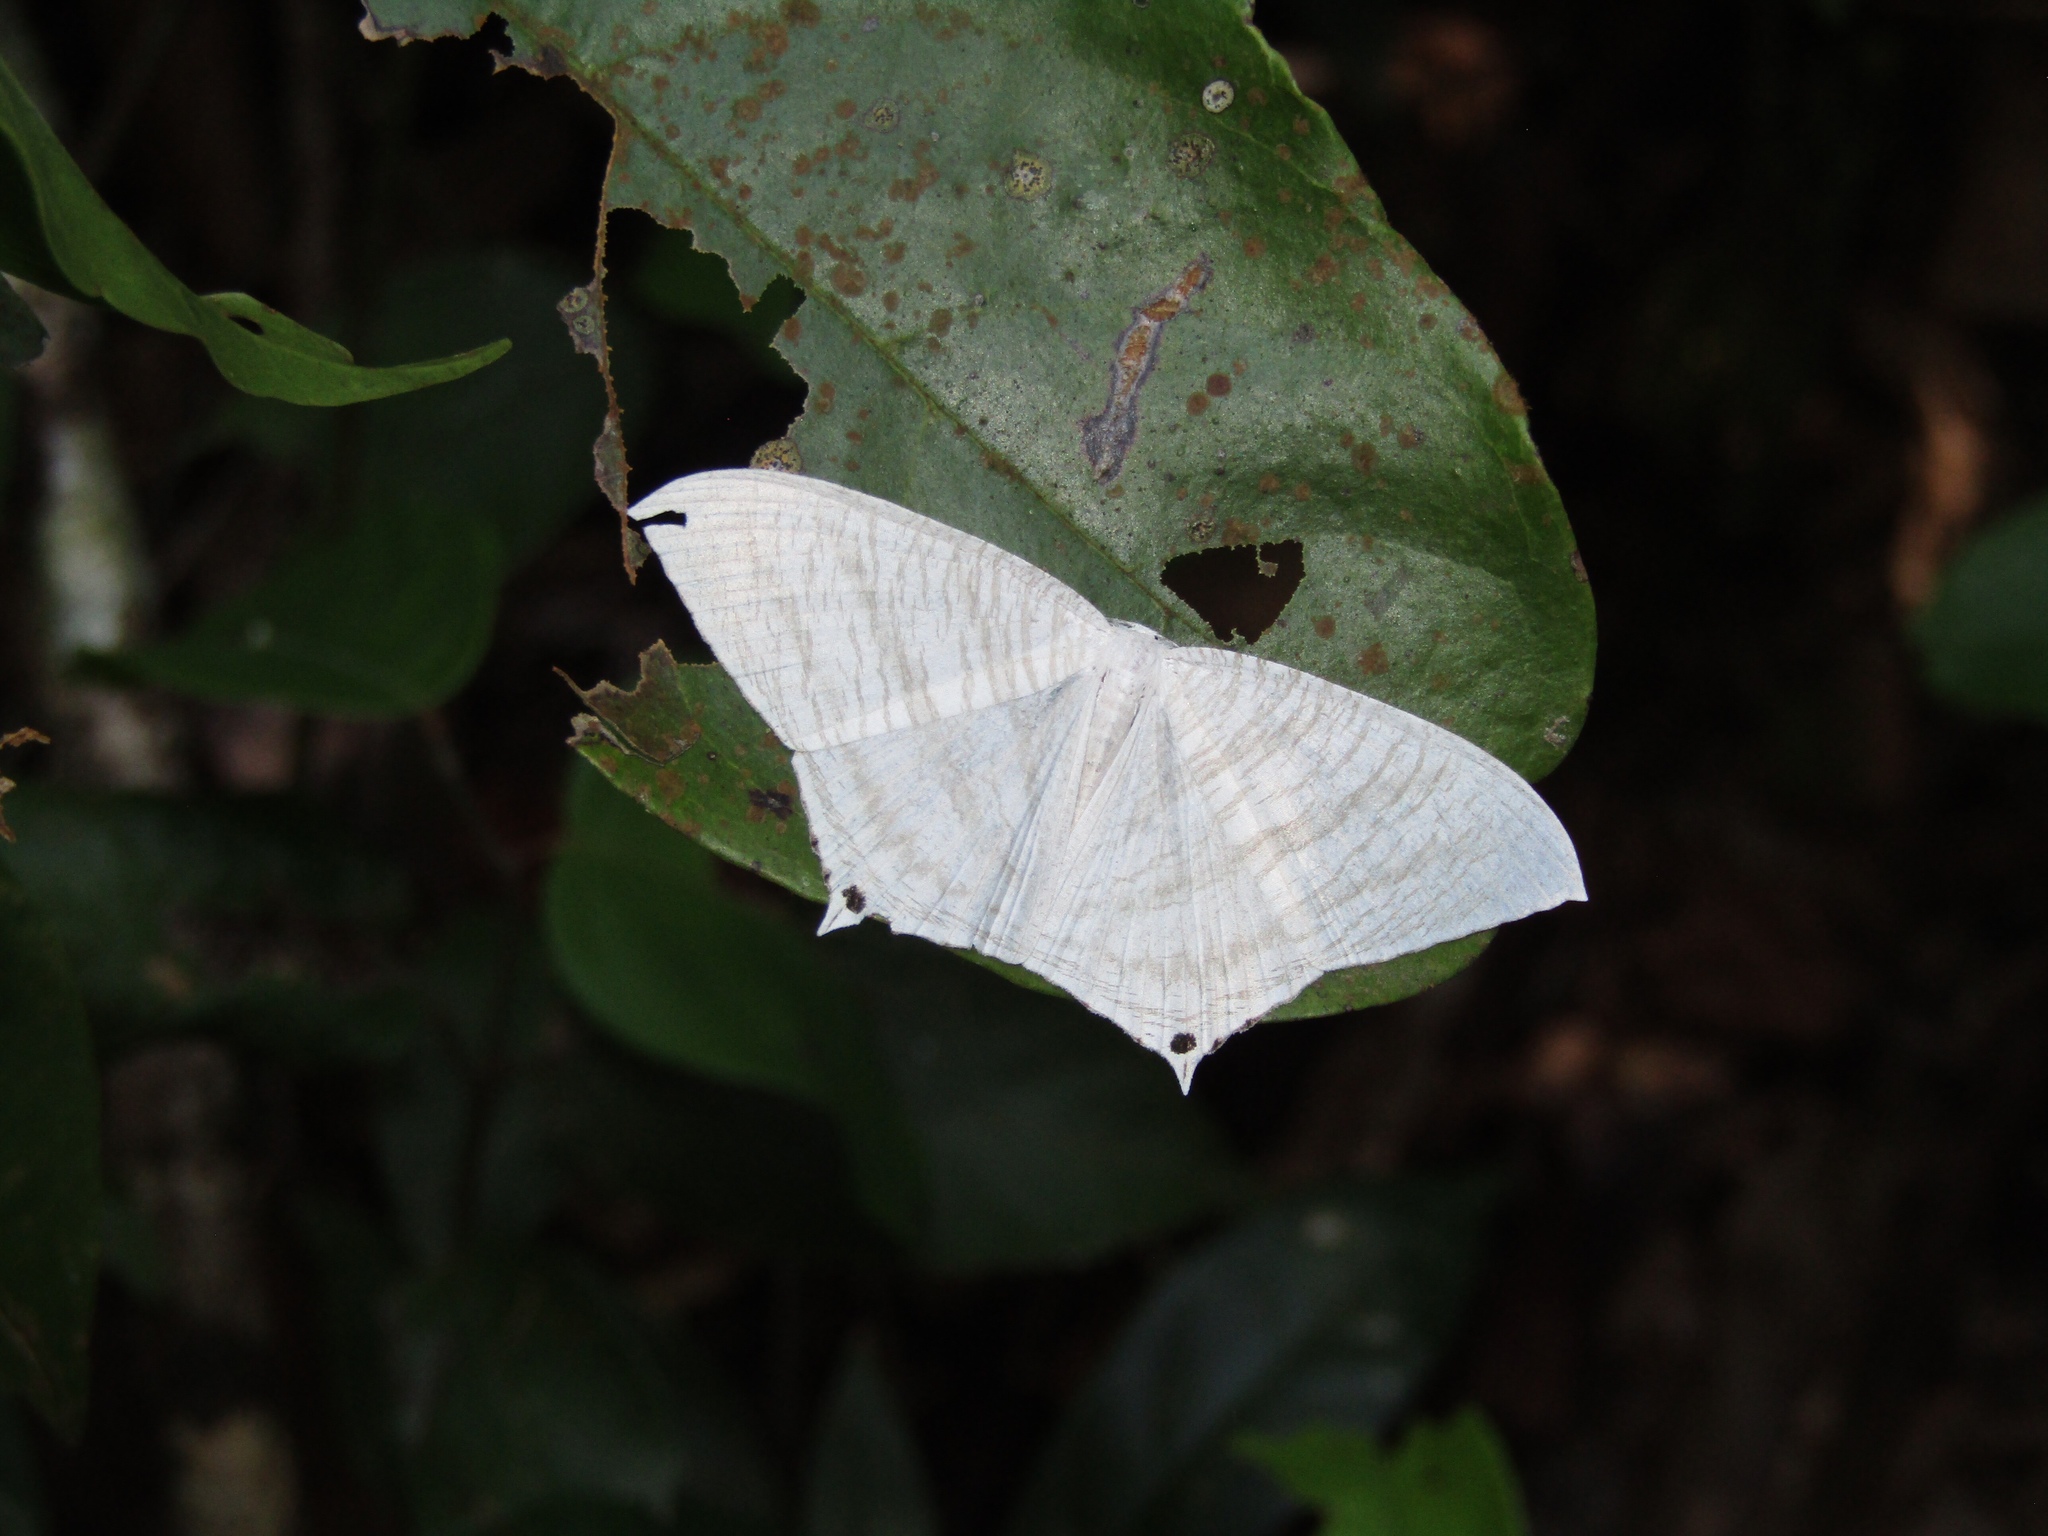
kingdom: Animalia
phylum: Arthropoda
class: Insecta
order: Lepidoptera
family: Uraniidae
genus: Micronia
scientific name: Micronia aculeata
